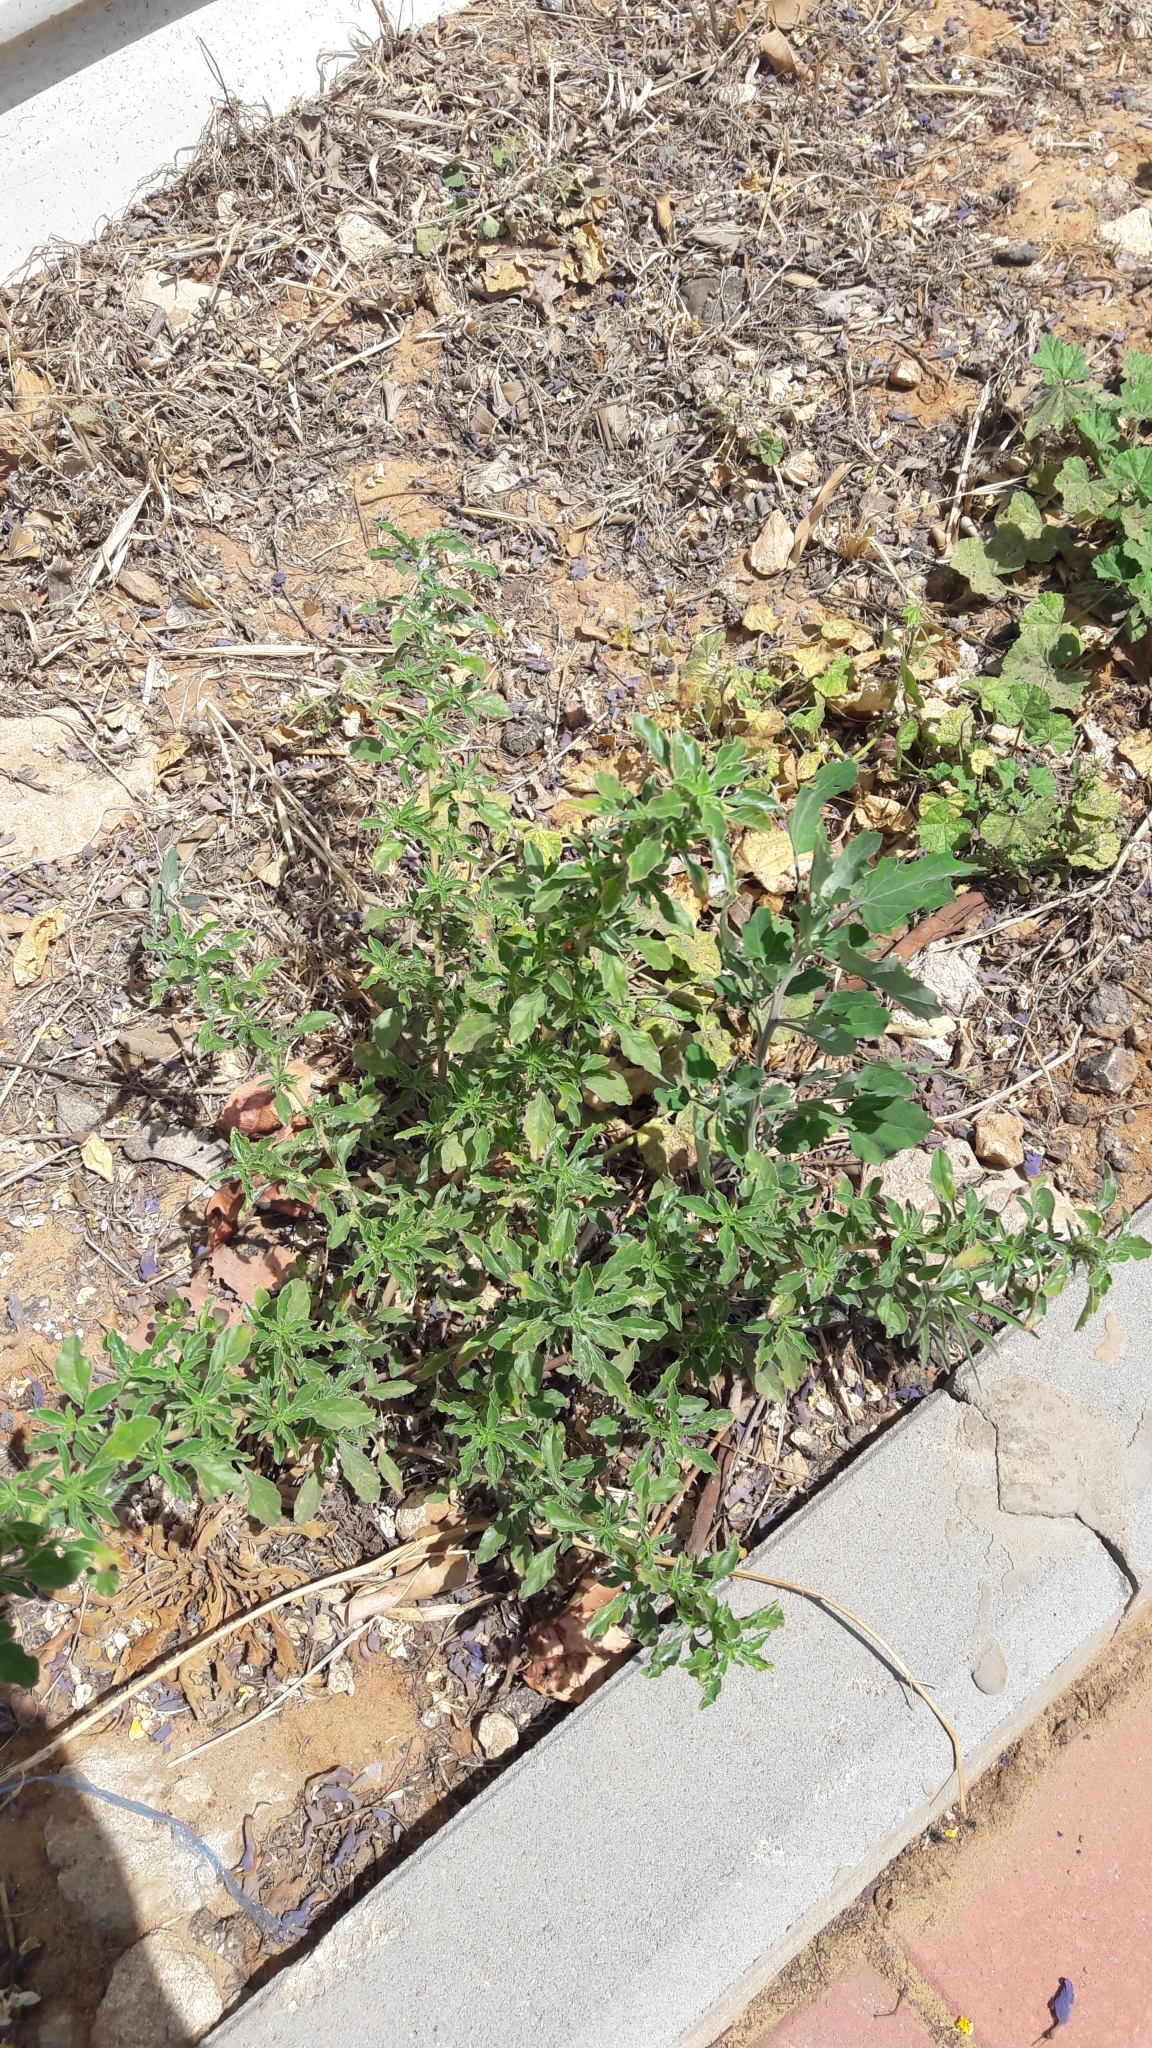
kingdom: Plantae
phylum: Tracheophyta
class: Magnoliopsida
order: Caryophyllales
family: Amaranthaceae
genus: Chenopodium
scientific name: Chenopodium album
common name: Fat-hen
